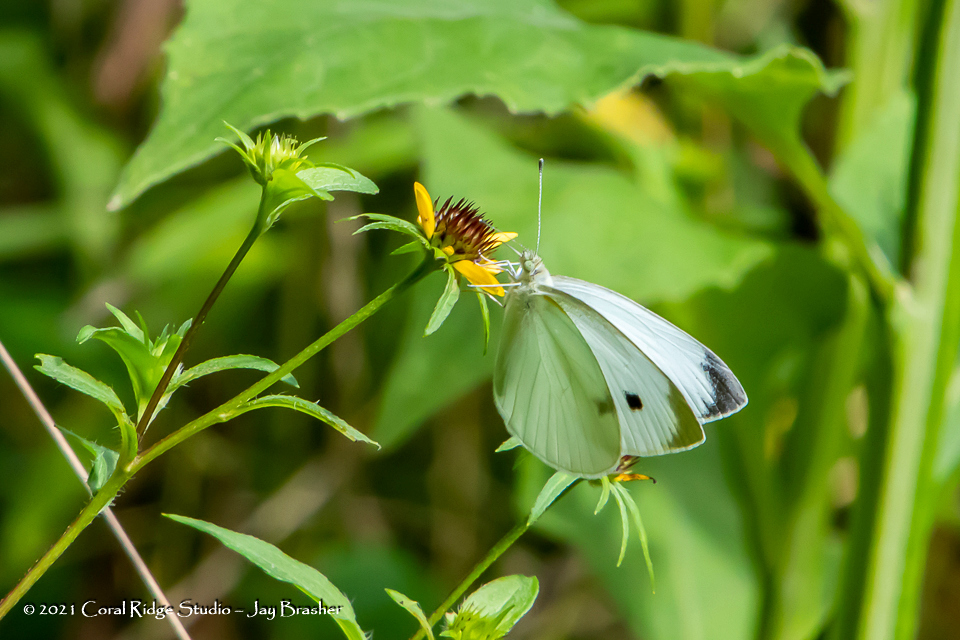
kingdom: Animalia
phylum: Arthropoda
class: Insecta
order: Lepidoptera
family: Pieridae
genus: Pieris
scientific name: Pieris rapae
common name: Small white
